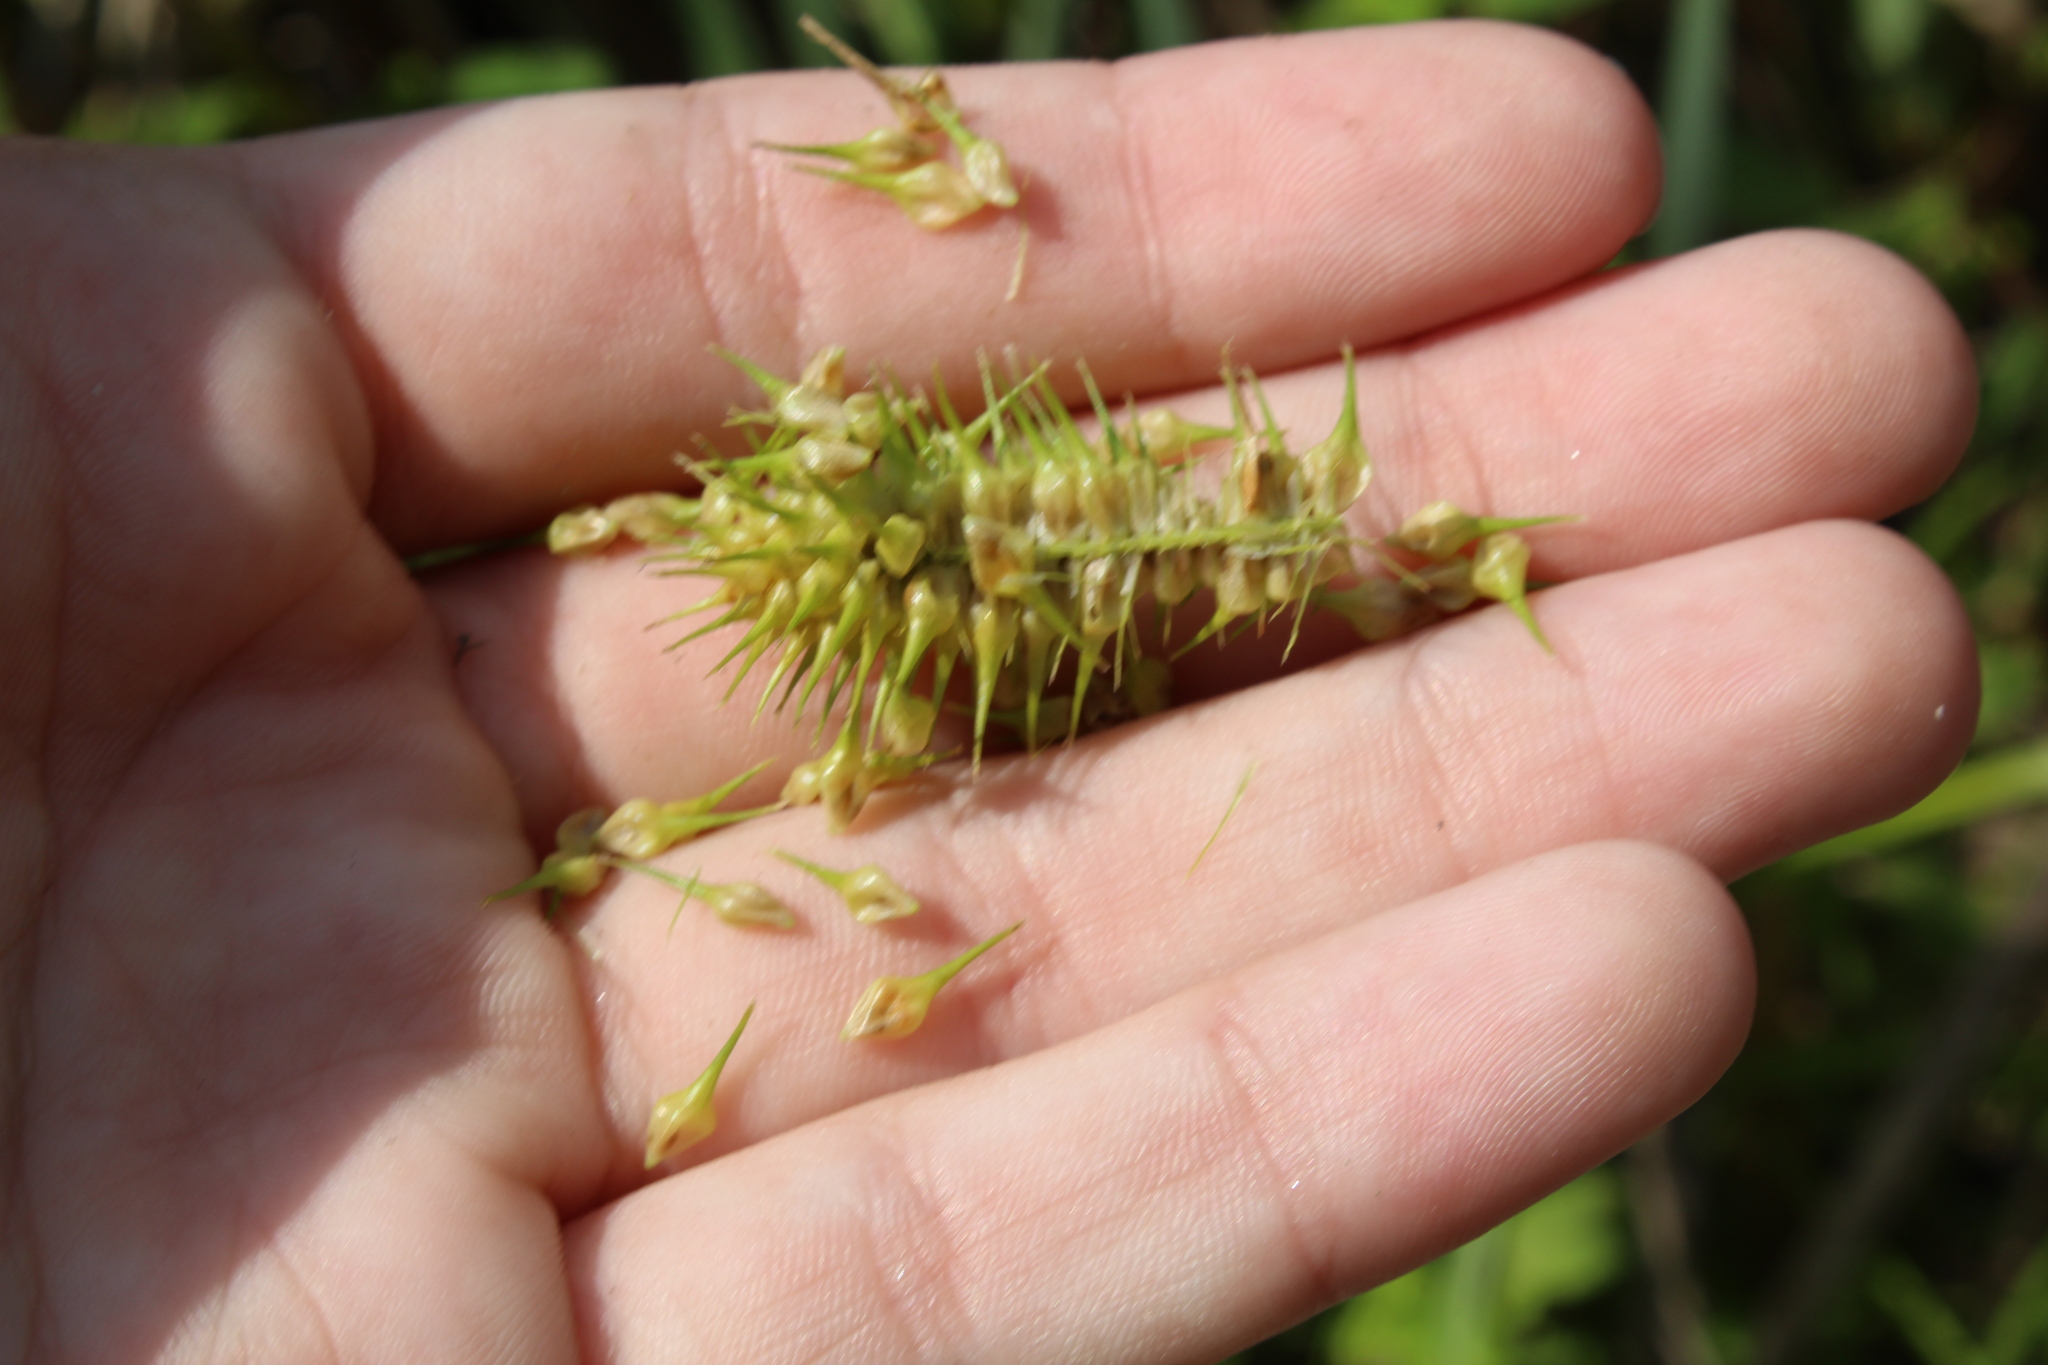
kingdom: Plantae
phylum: Tracheophyta
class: Liliopsida
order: Poales
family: Cyperaceae
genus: Carex
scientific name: Carex lurida
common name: Sallow sedge
